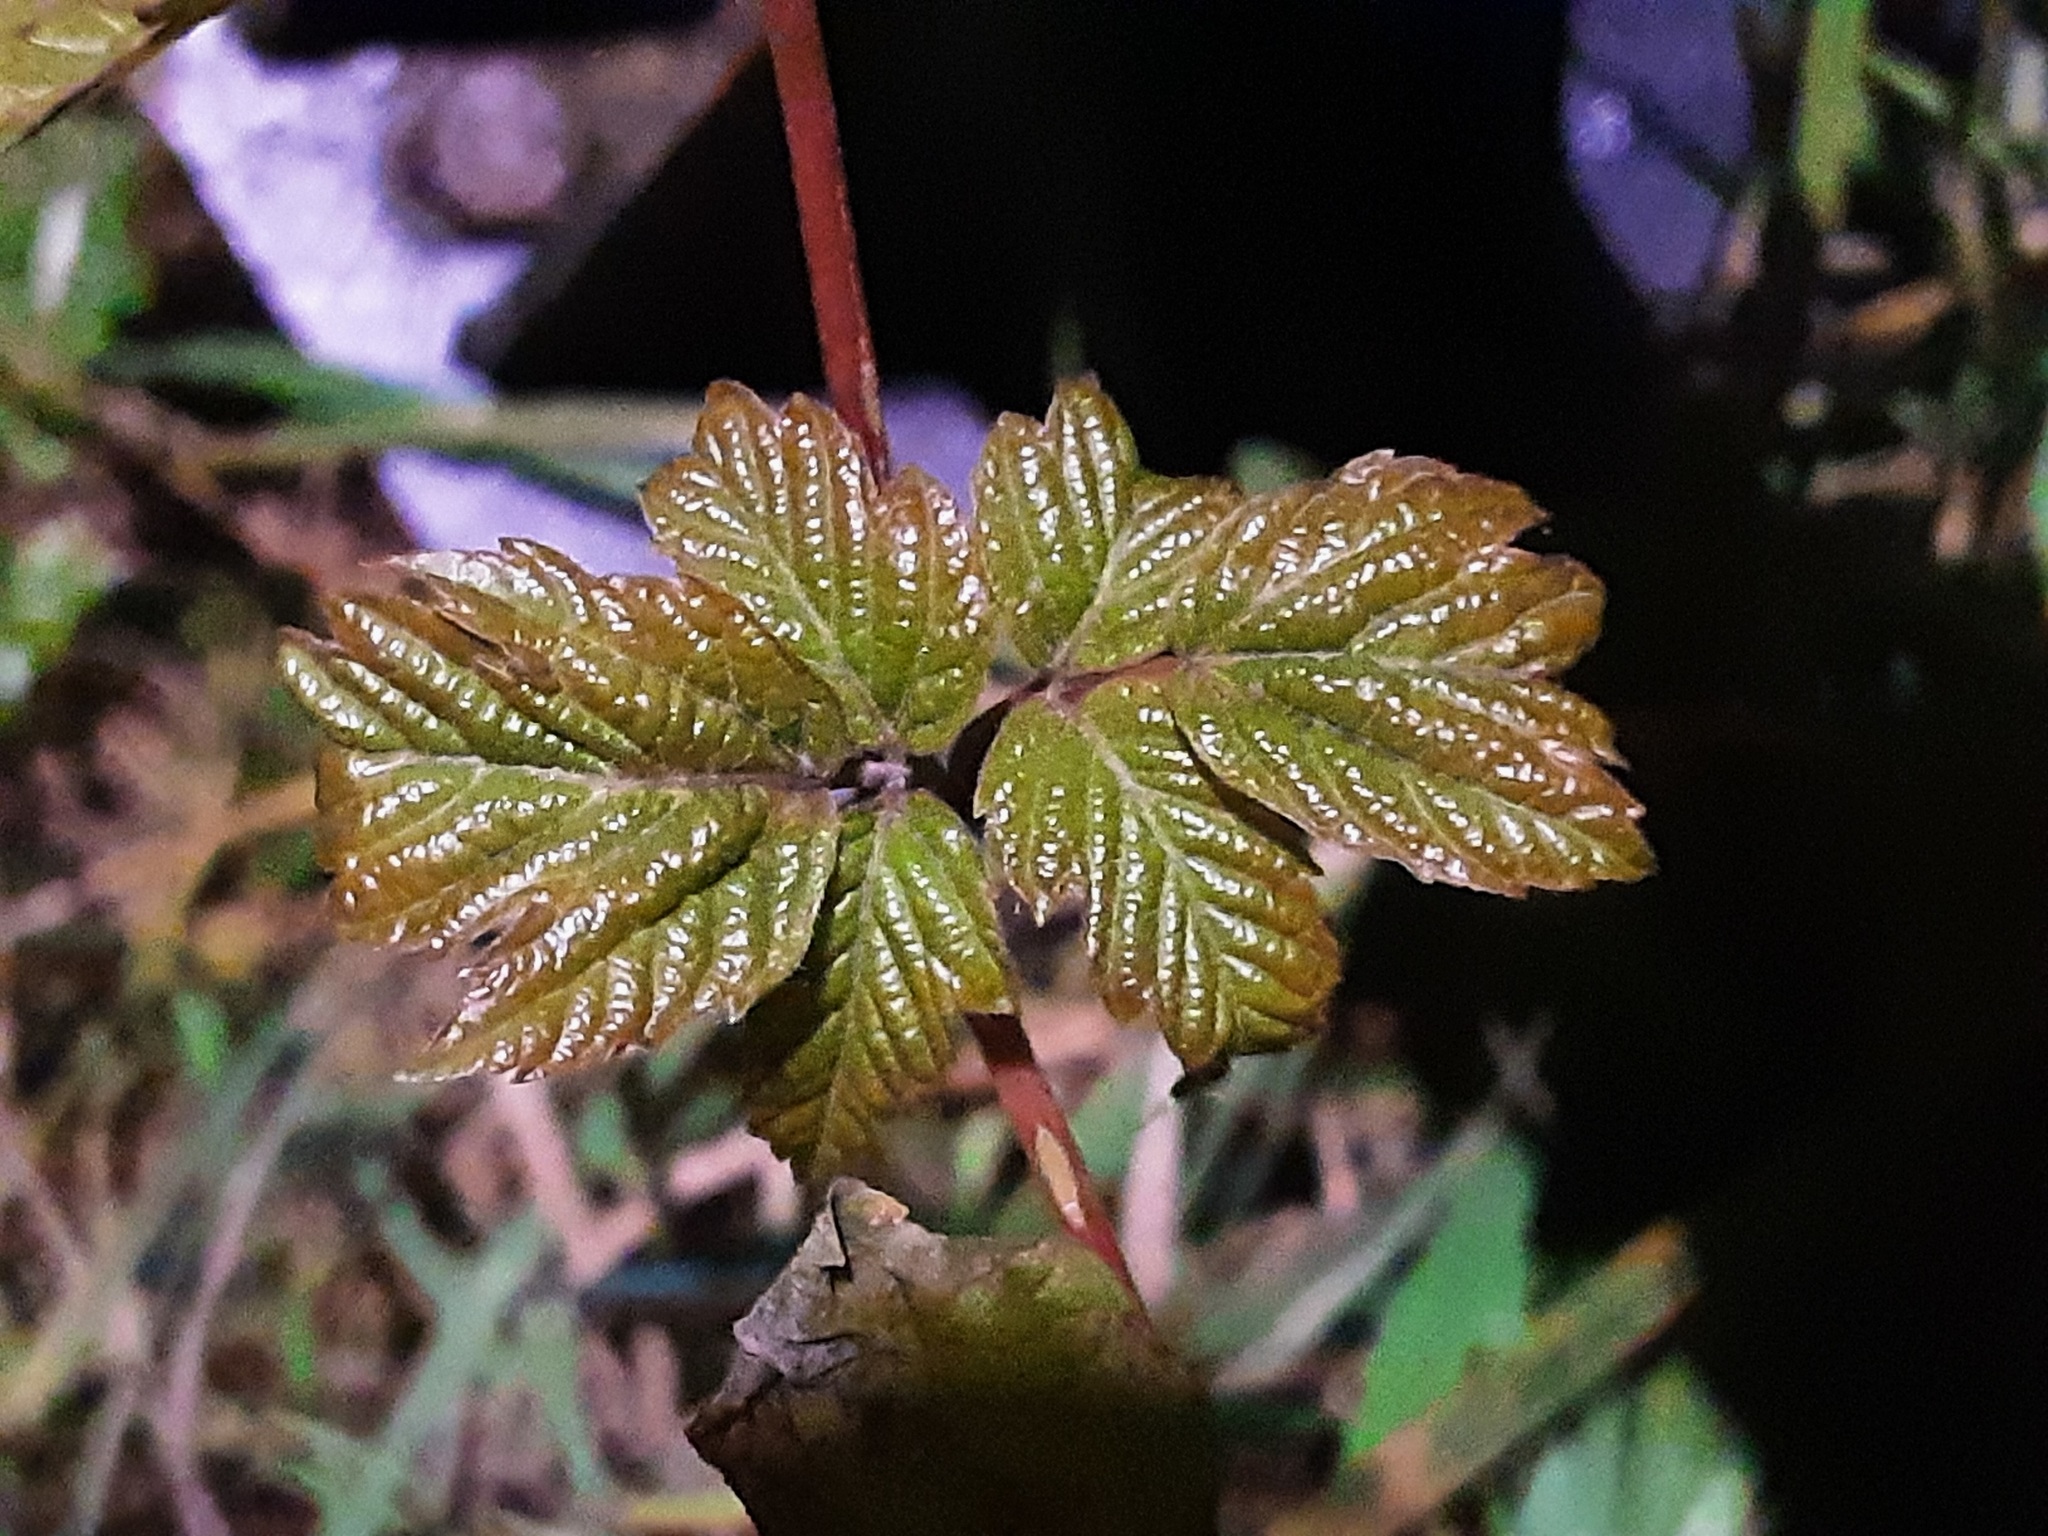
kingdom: Plantae
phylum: Tracheophyta
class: Magnoliopsida
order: Rosales
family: Rosaceae
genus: Rubus
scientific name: Rubus idaeus
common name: Raspberry
